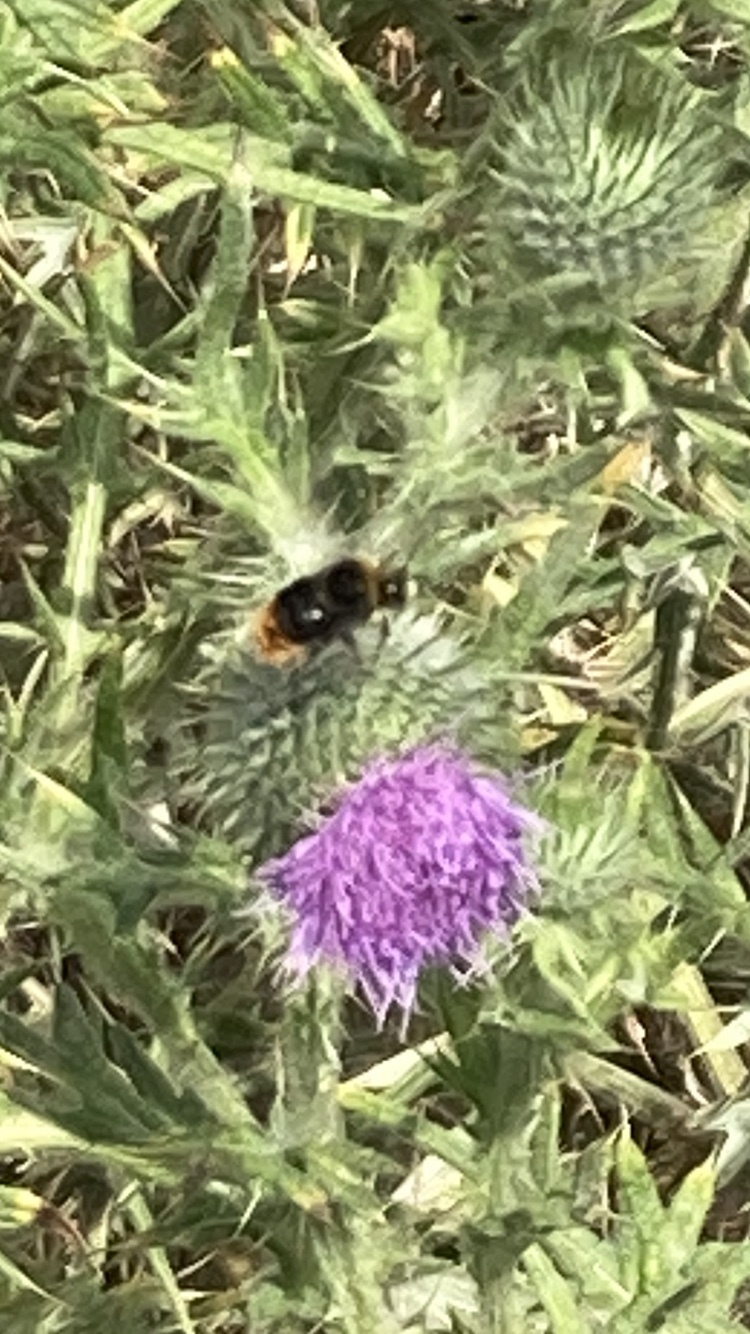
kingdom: Animalia
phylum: Arthropoda
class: Insecta
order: Hymenoptera
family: Apidae
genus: Bombus
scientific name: Bombus lapidarius
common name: Large red-tailed humble-bee
